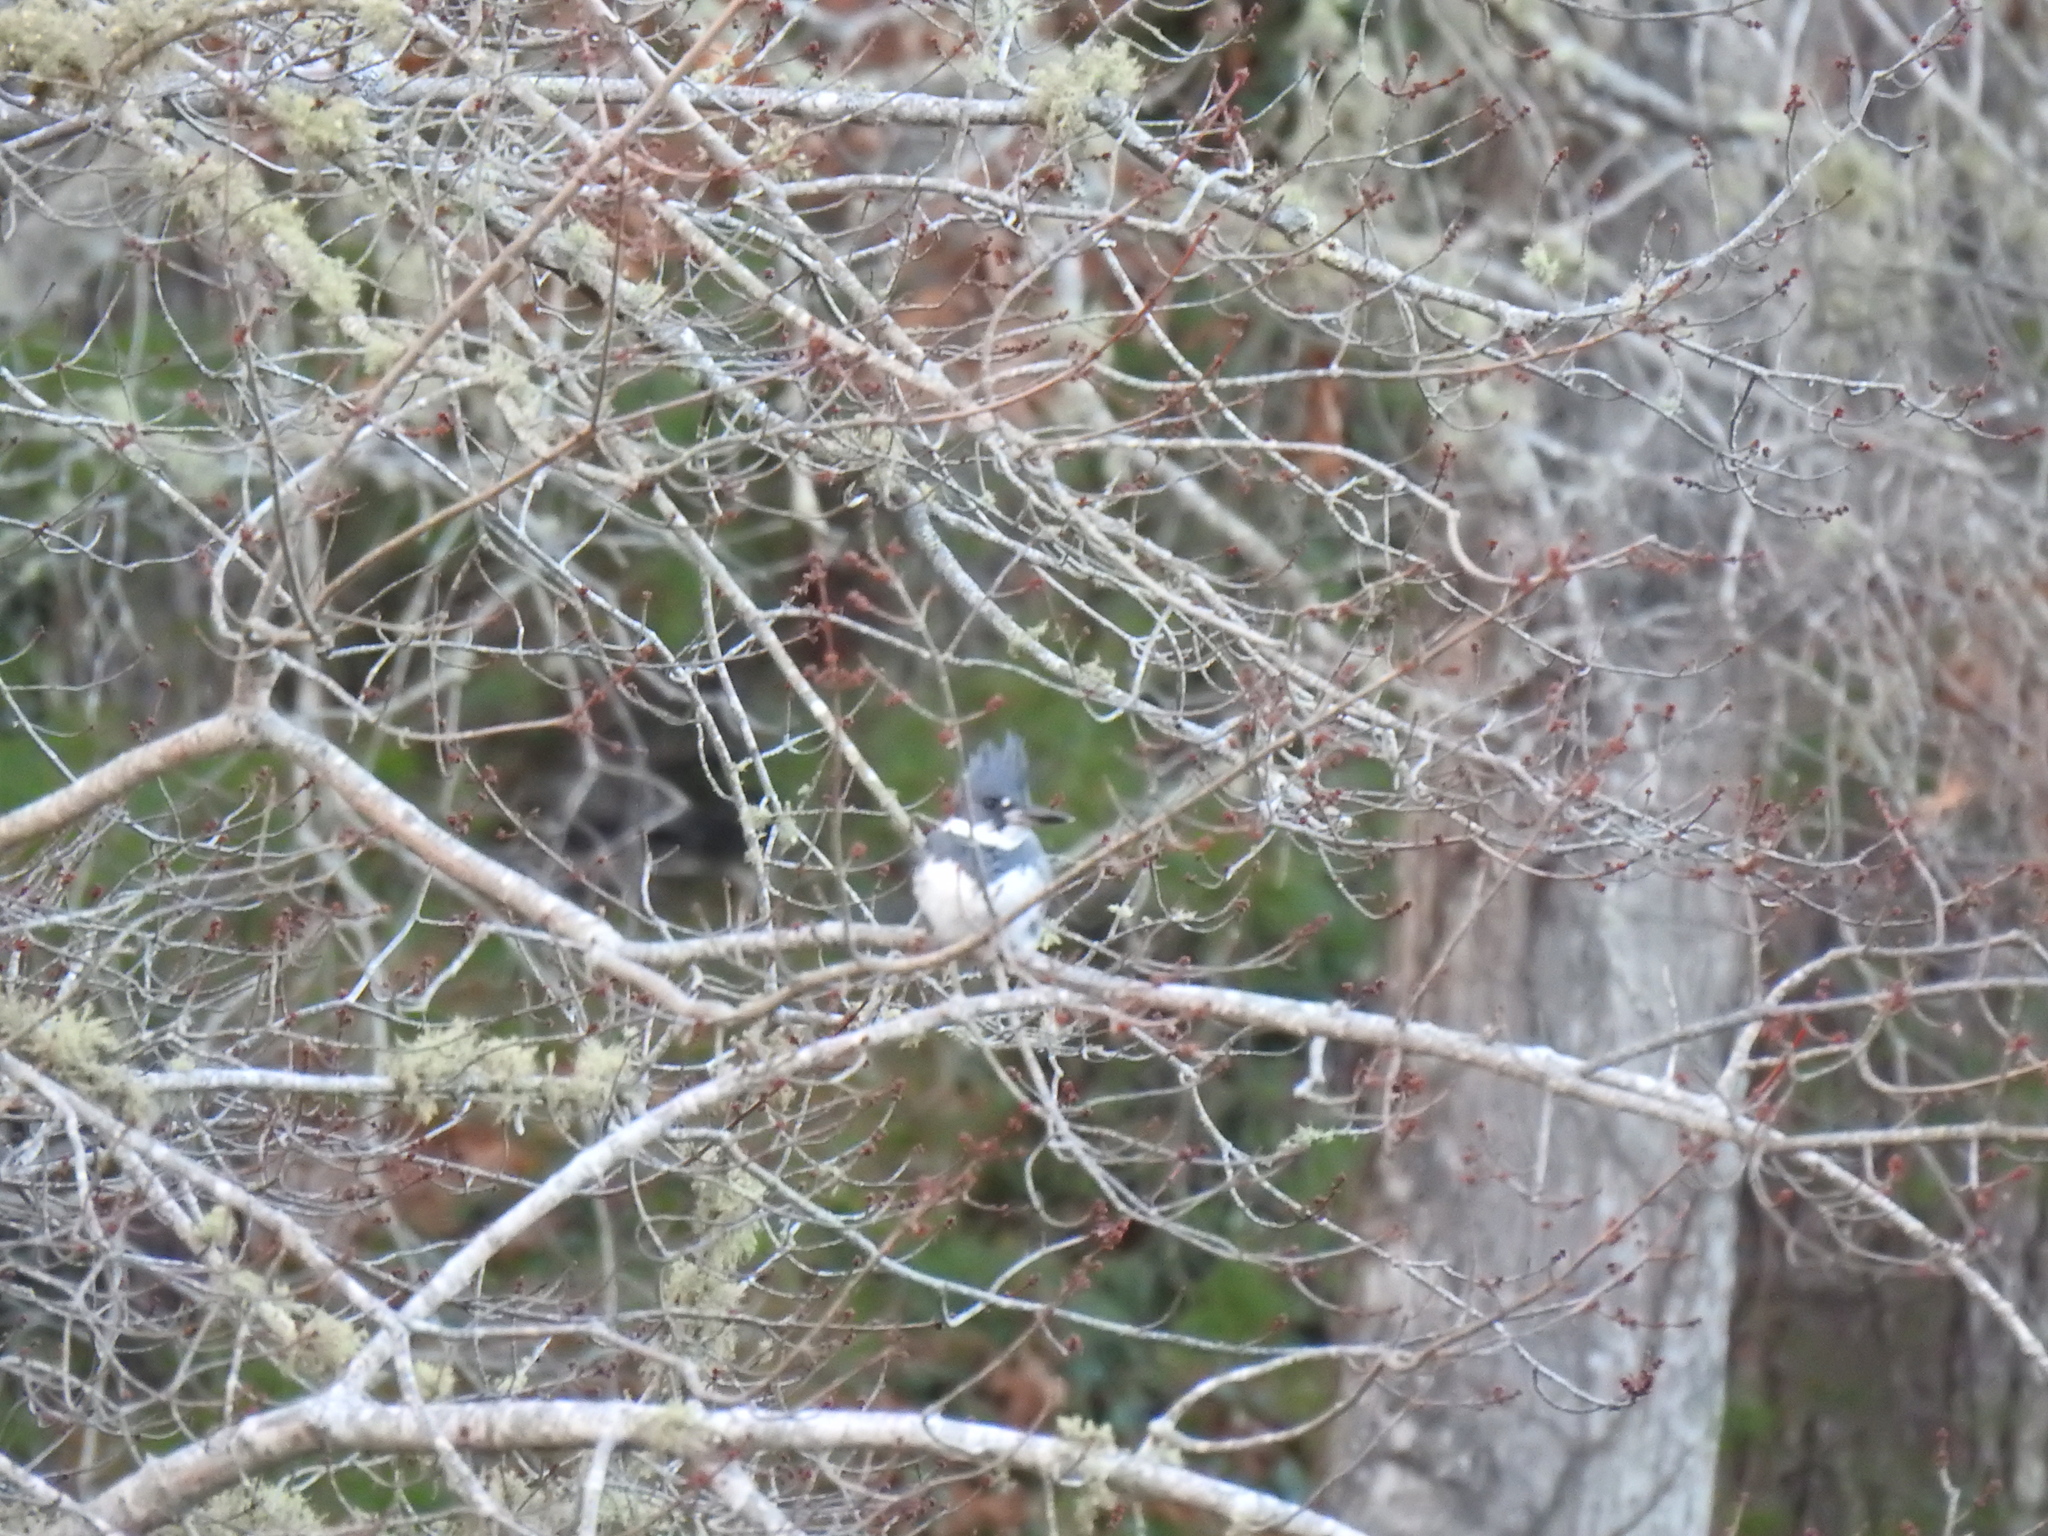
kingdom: Animalia
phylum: Chordata
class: Aves
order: Coraciiformes
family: Alcedinidae
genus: Megaceryle
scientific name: Megaceryle alcyon
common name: Belted kingfisher
